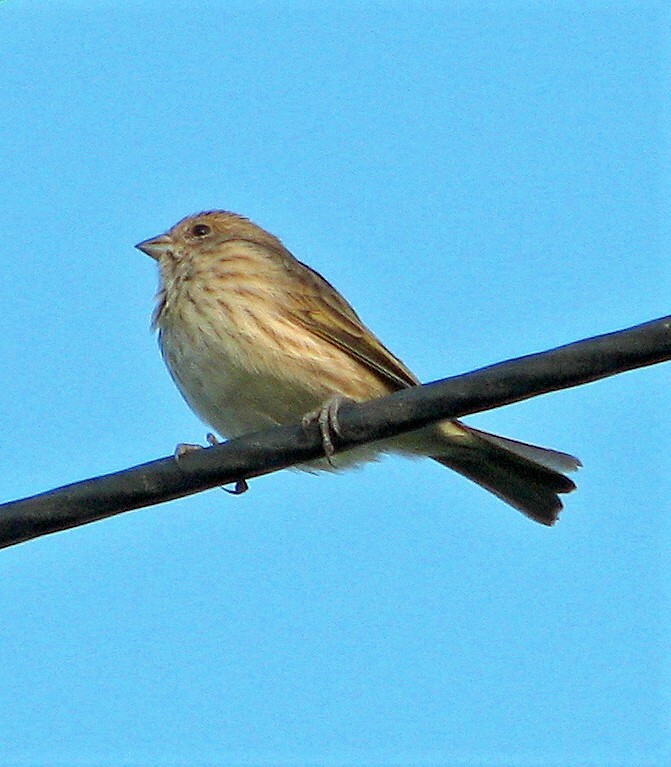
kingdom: Animalia
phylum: Chordata
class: Aves
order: Passeriformes
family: Thraupidae
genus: Sicalis
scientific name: Sicalis flaveola
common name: Saffron finch
